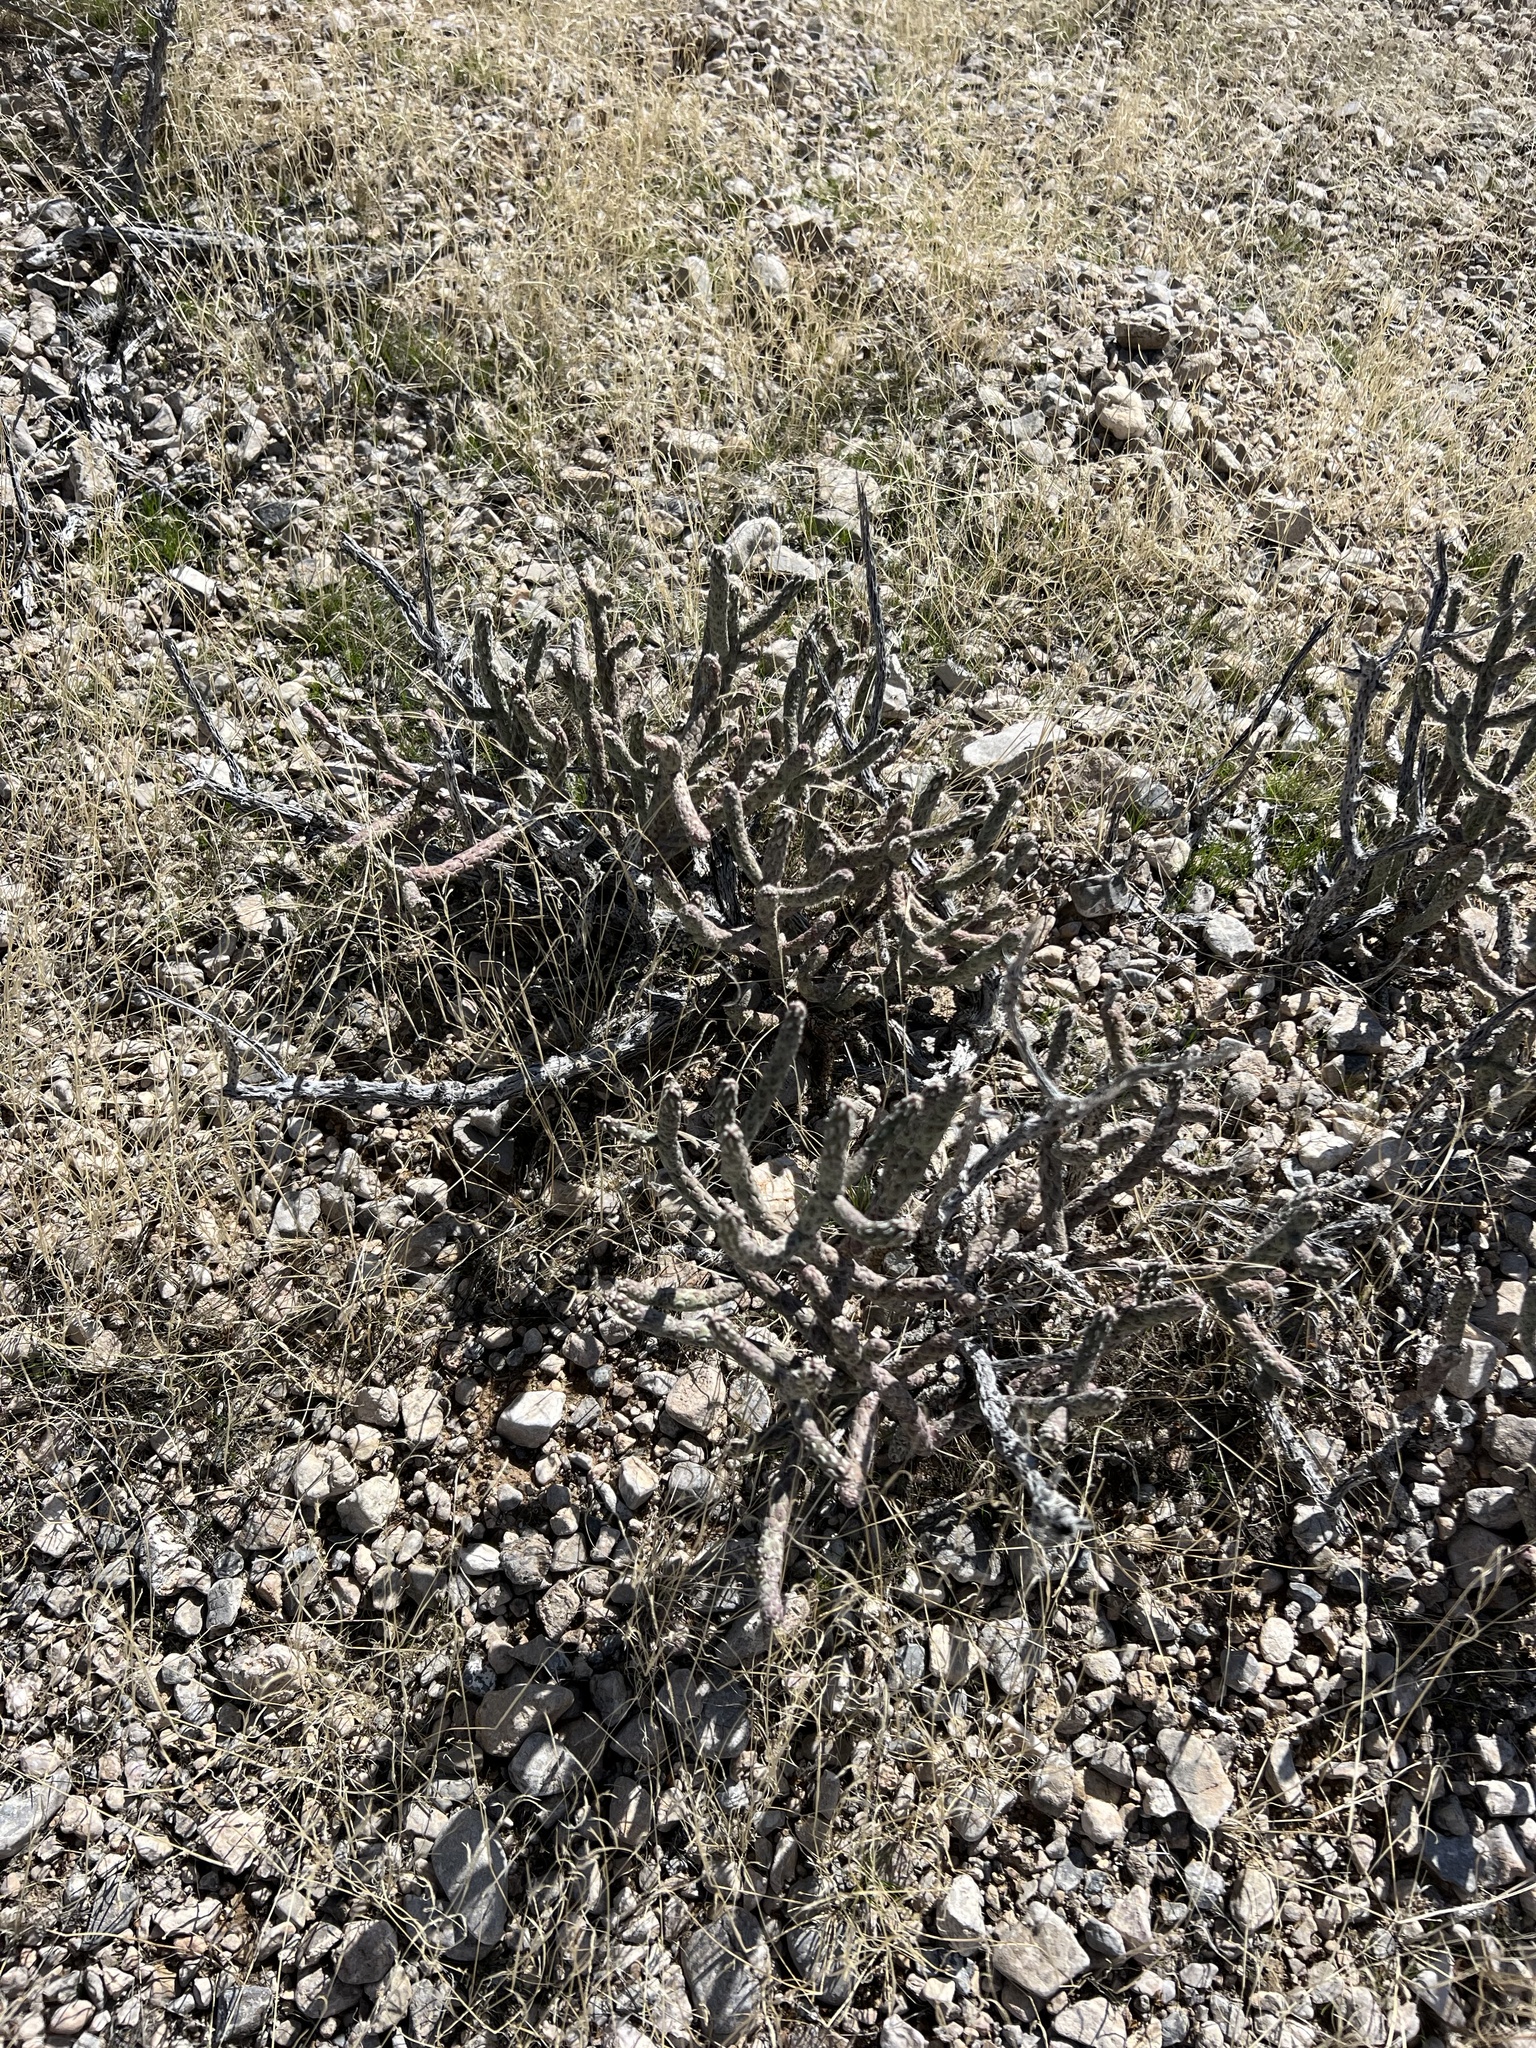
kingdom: Plantae
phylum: Tracheophyta
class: Magnoliopsida
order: Caryophyllales
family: Cactaceae
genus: Cylindropuntia
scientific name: Cylindropuntia ramosissima
